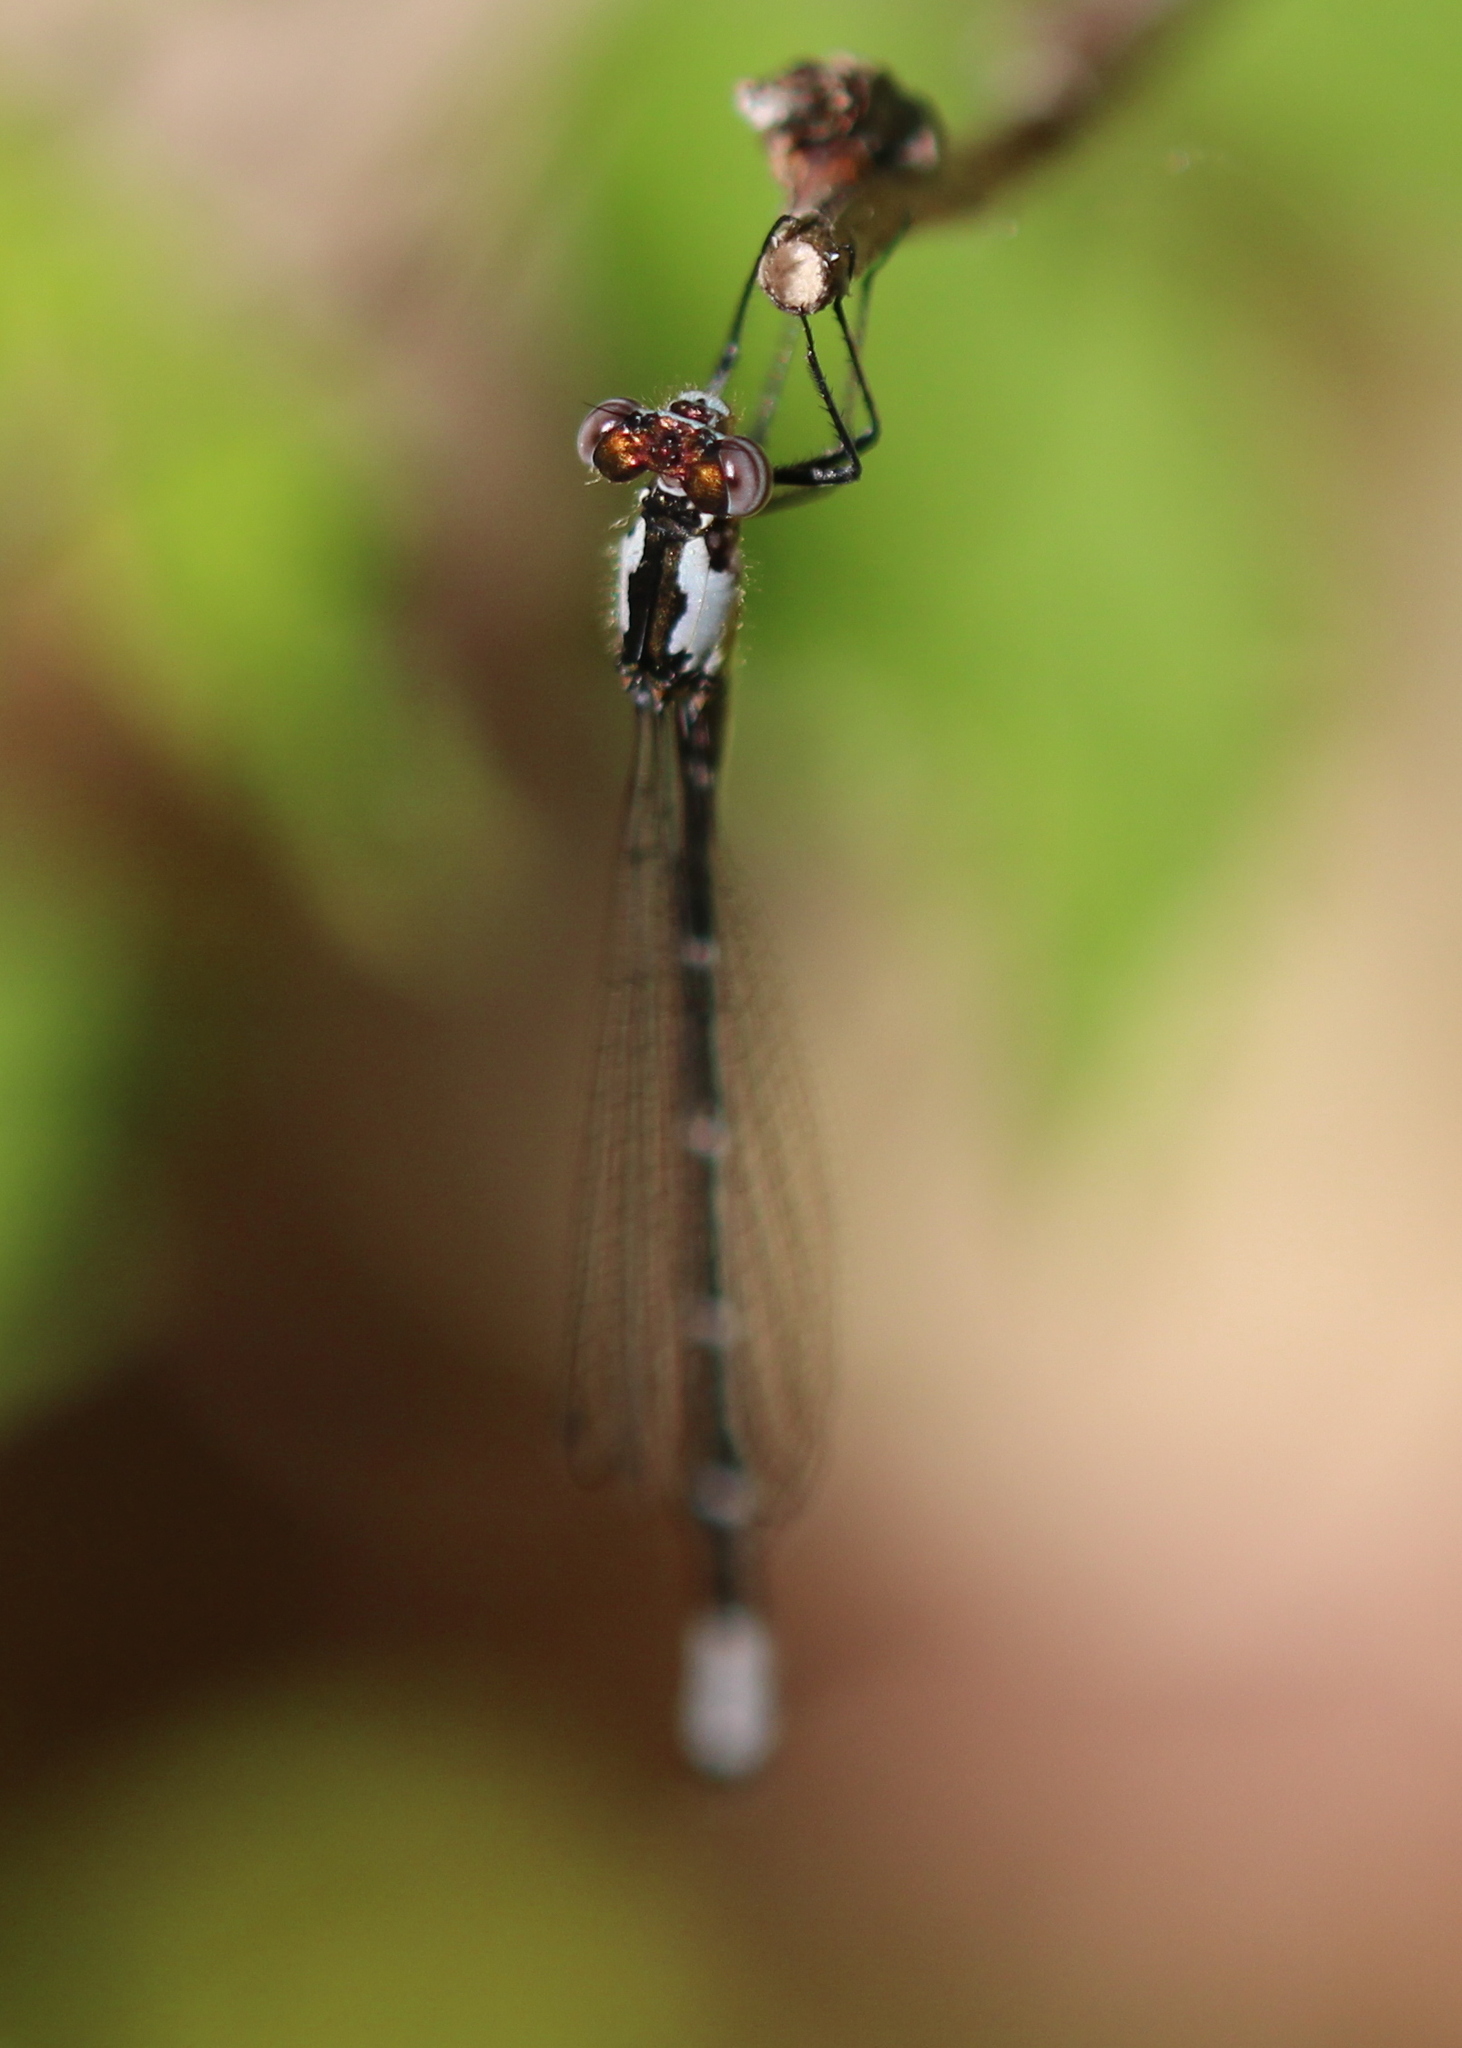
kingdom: Animalia
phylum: Arthropoda
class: Insecta
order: Odonata
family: Coenagrionidae
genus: Chromagrion
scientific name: Chromagrion conditum
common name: Aurora damsel
